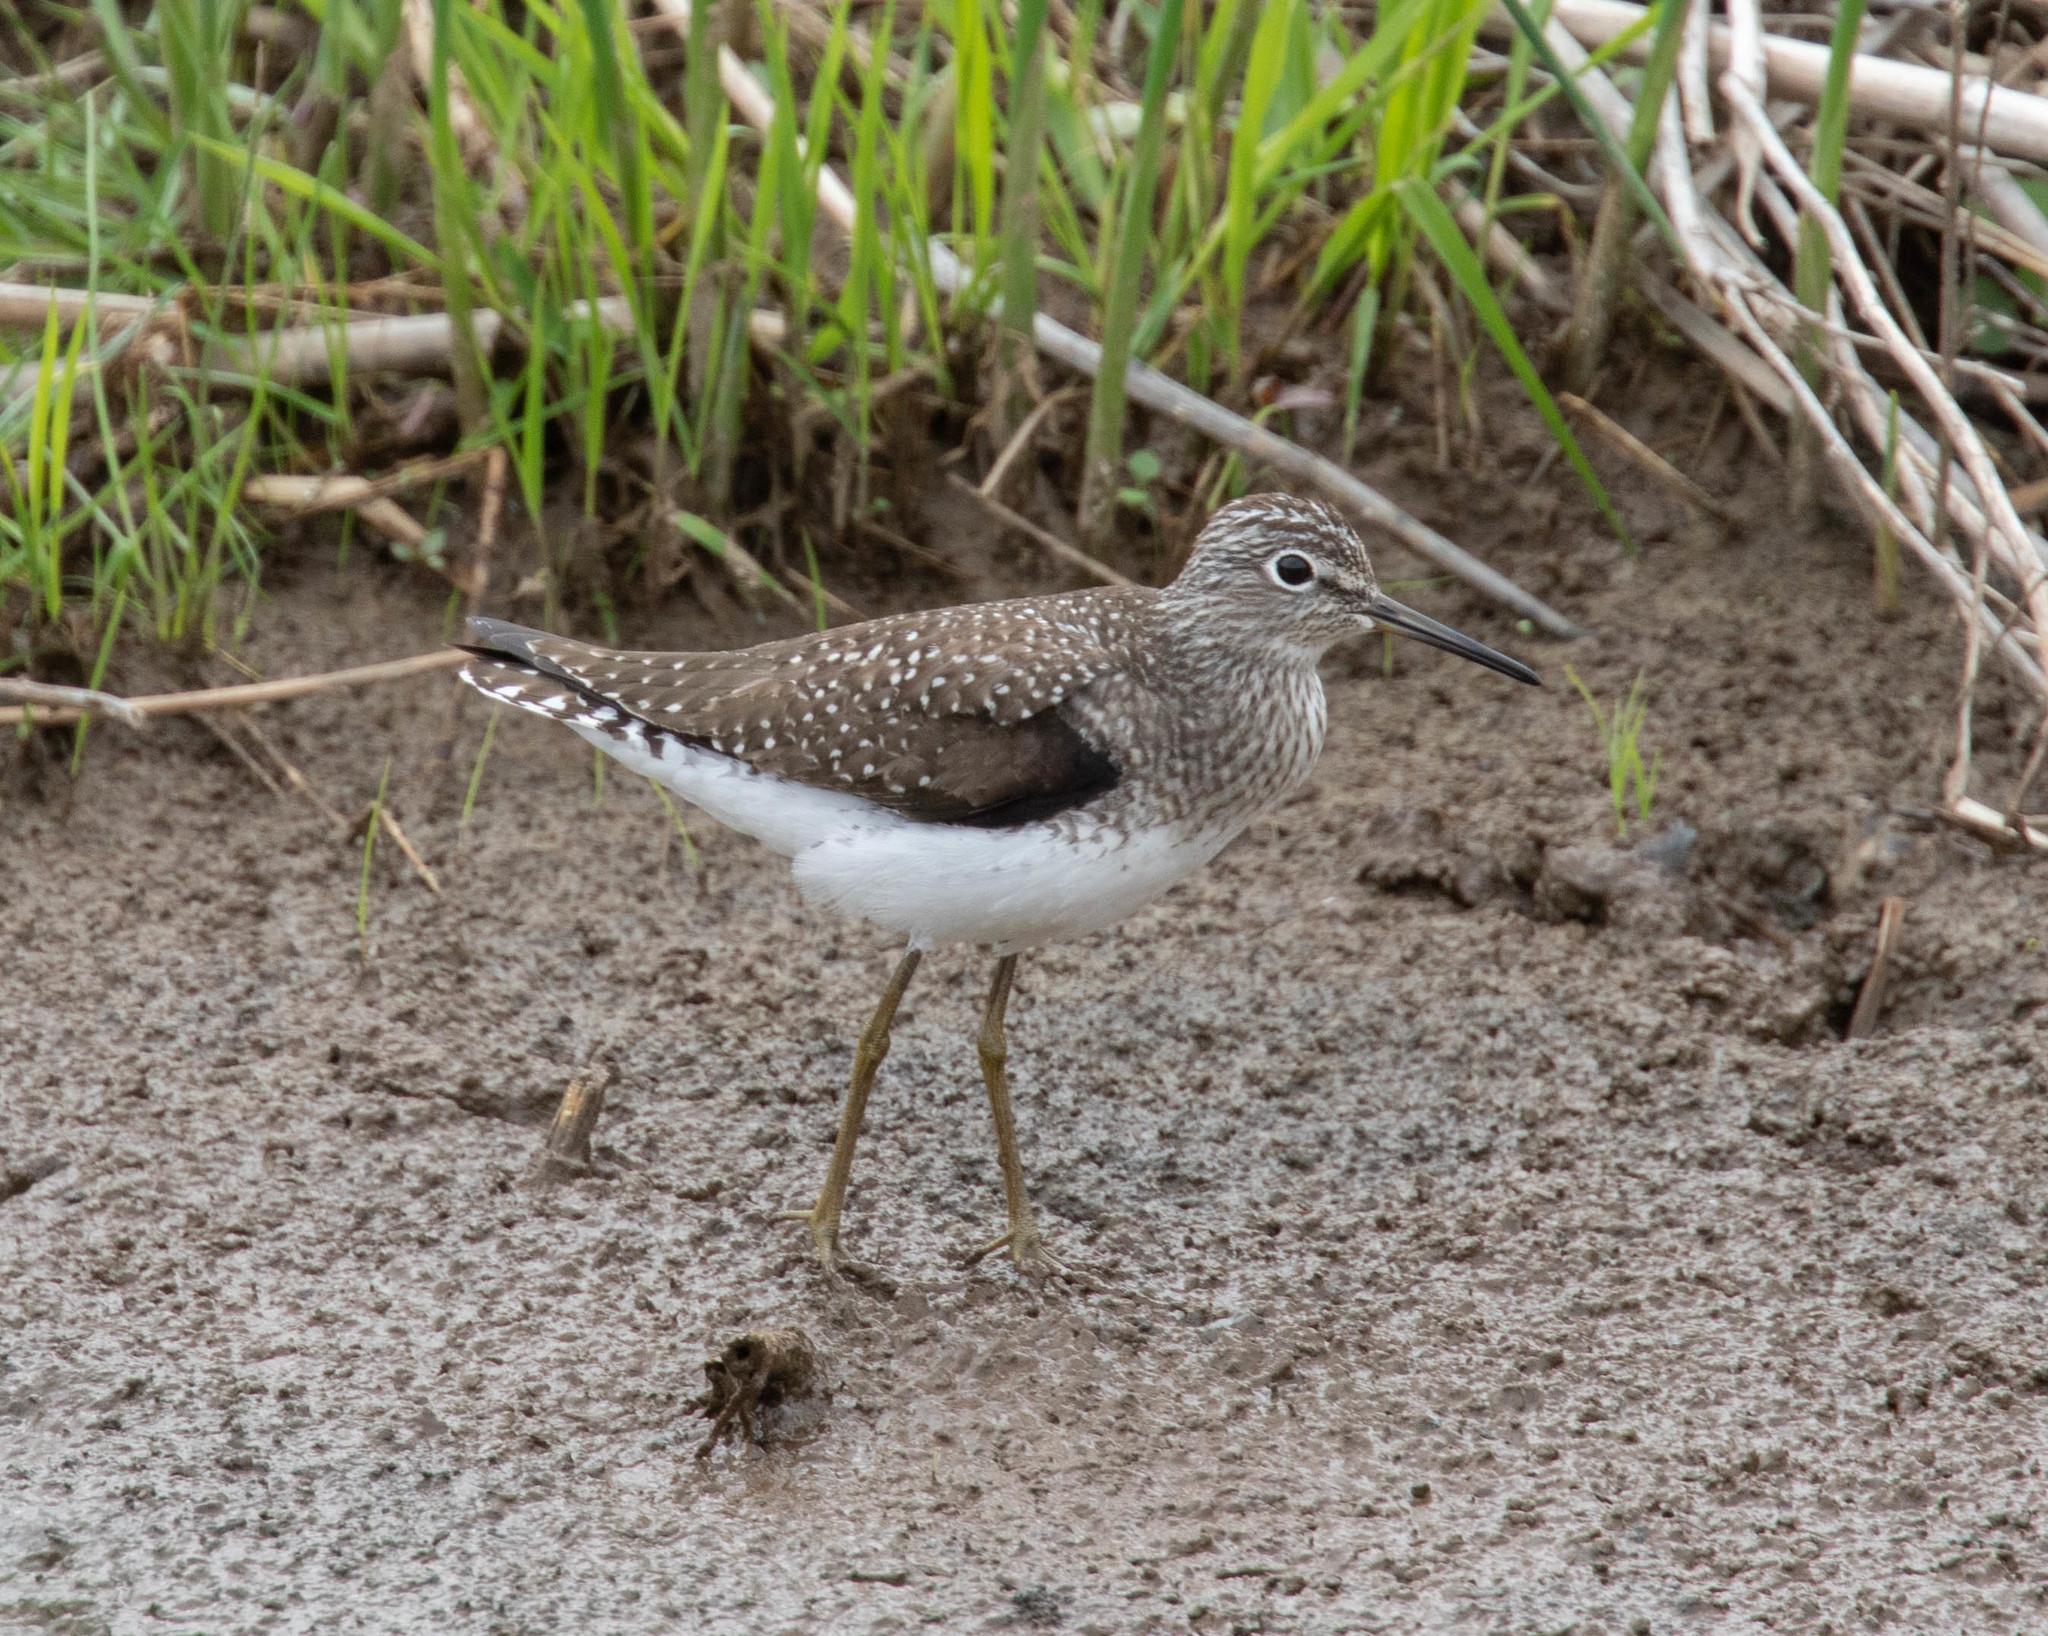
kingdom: Animalia
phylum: Chordata
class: Aves
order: Charadriiformes
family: Scolopacidae
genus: Tringa
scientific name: Tringa solitaria
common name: Solitary sandpiper
